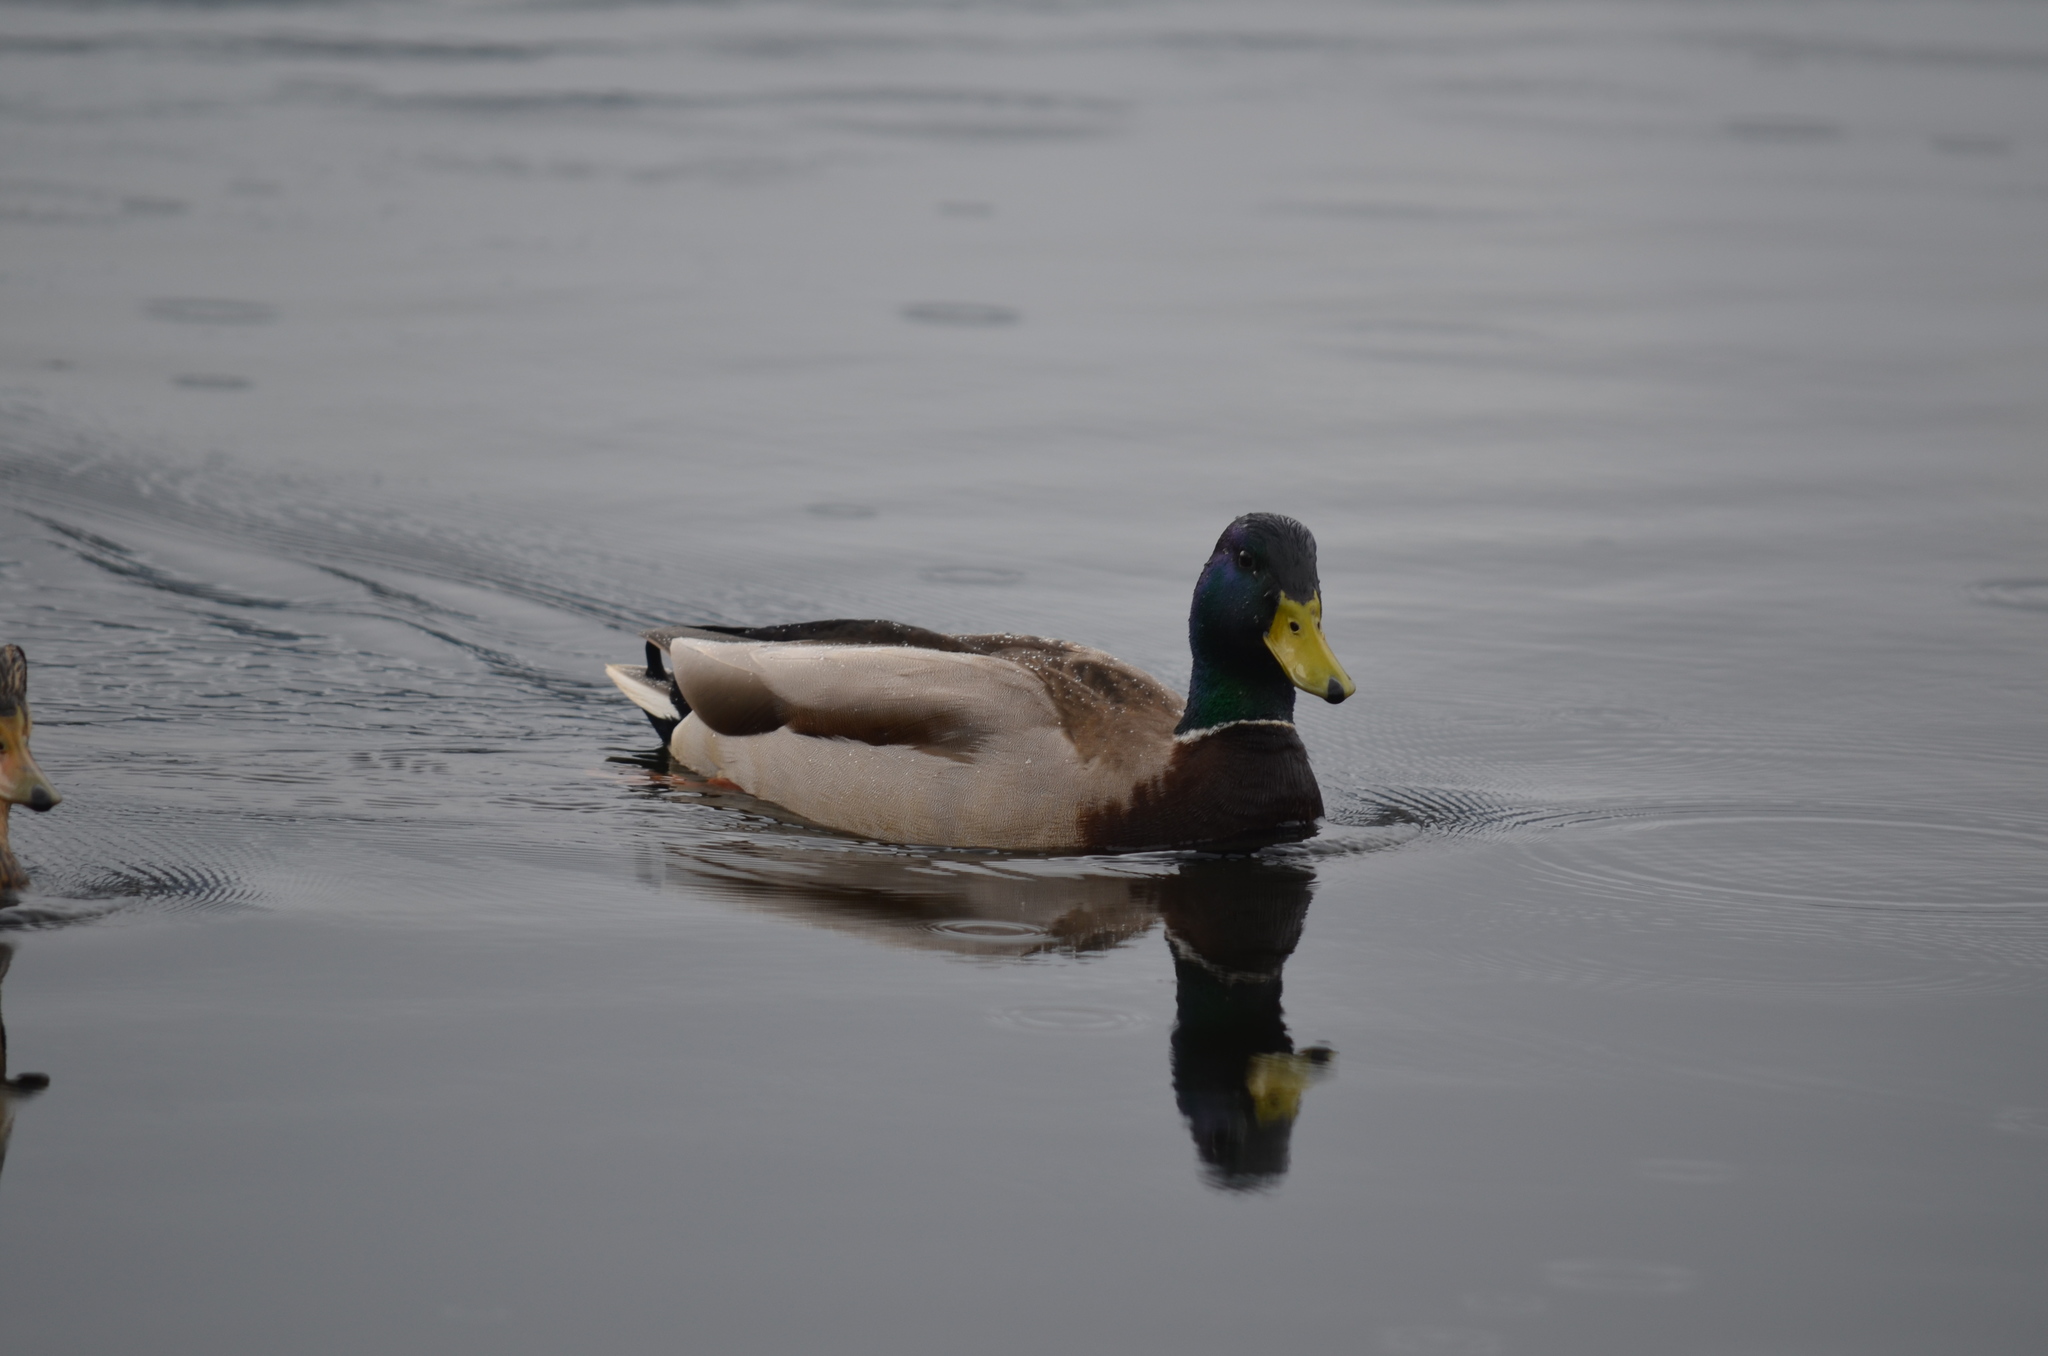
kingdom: Animalia
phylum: Chordata
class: Aves
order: Anseriformes
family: Anatidae
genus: Anas
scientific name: Anas platyrhynchos
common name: Mallard
